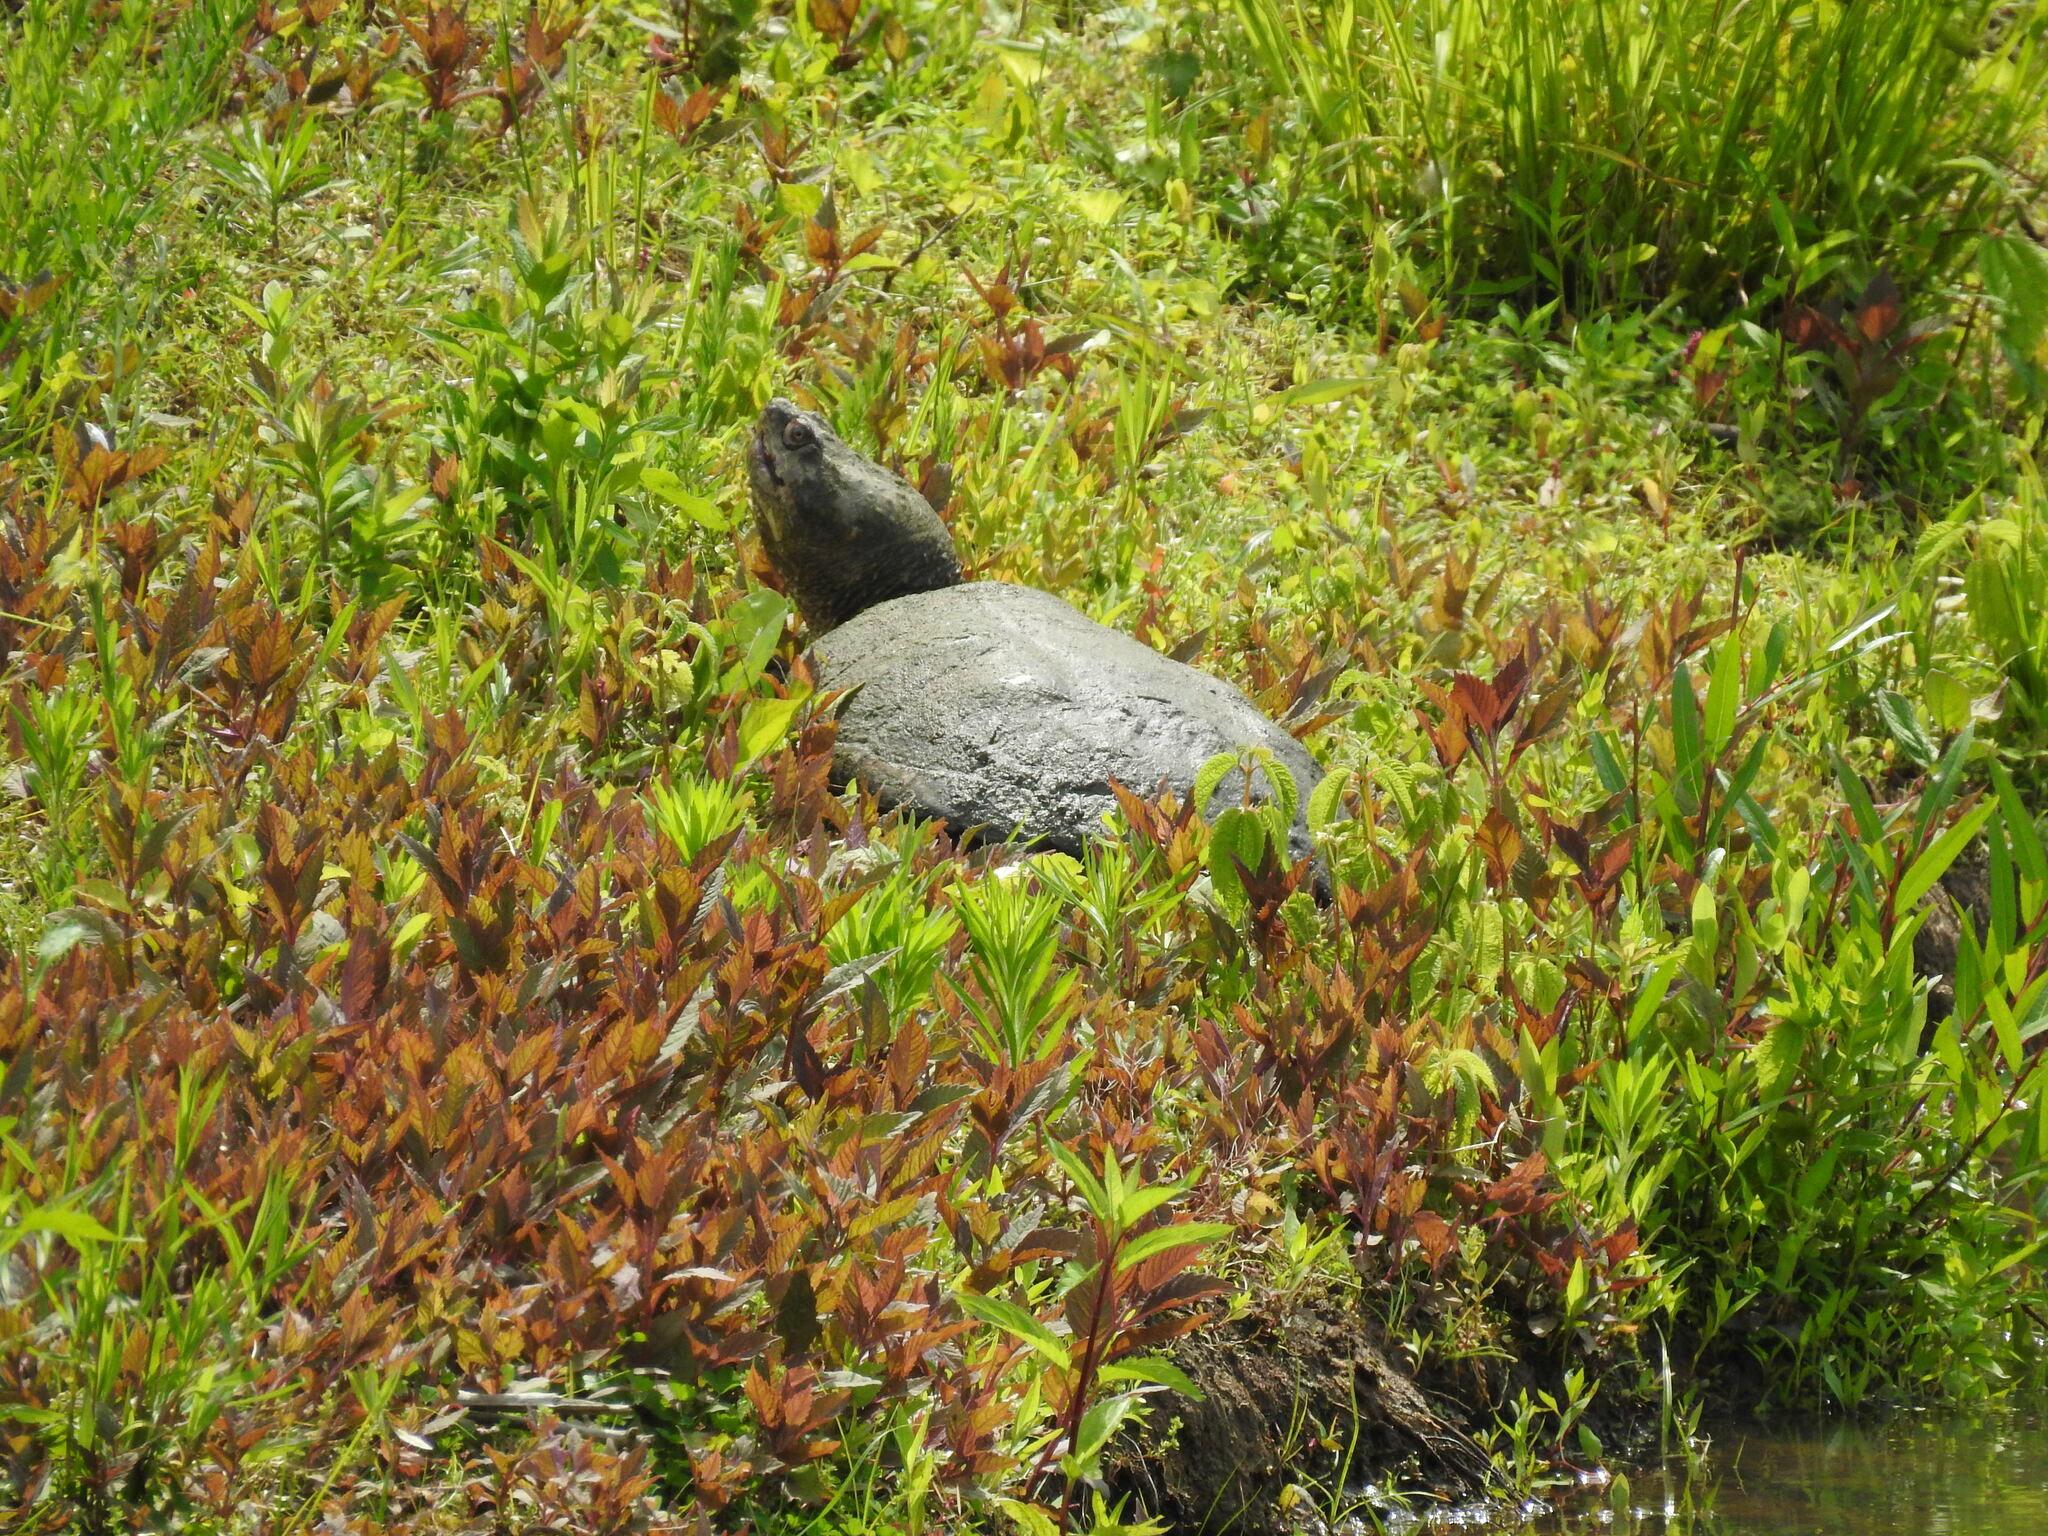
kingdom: Animalia
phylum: Chordata
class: Testudines
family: Chelydridae
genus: Chelydra
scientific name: Chelydra serpentina
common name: Common snapping turtle
